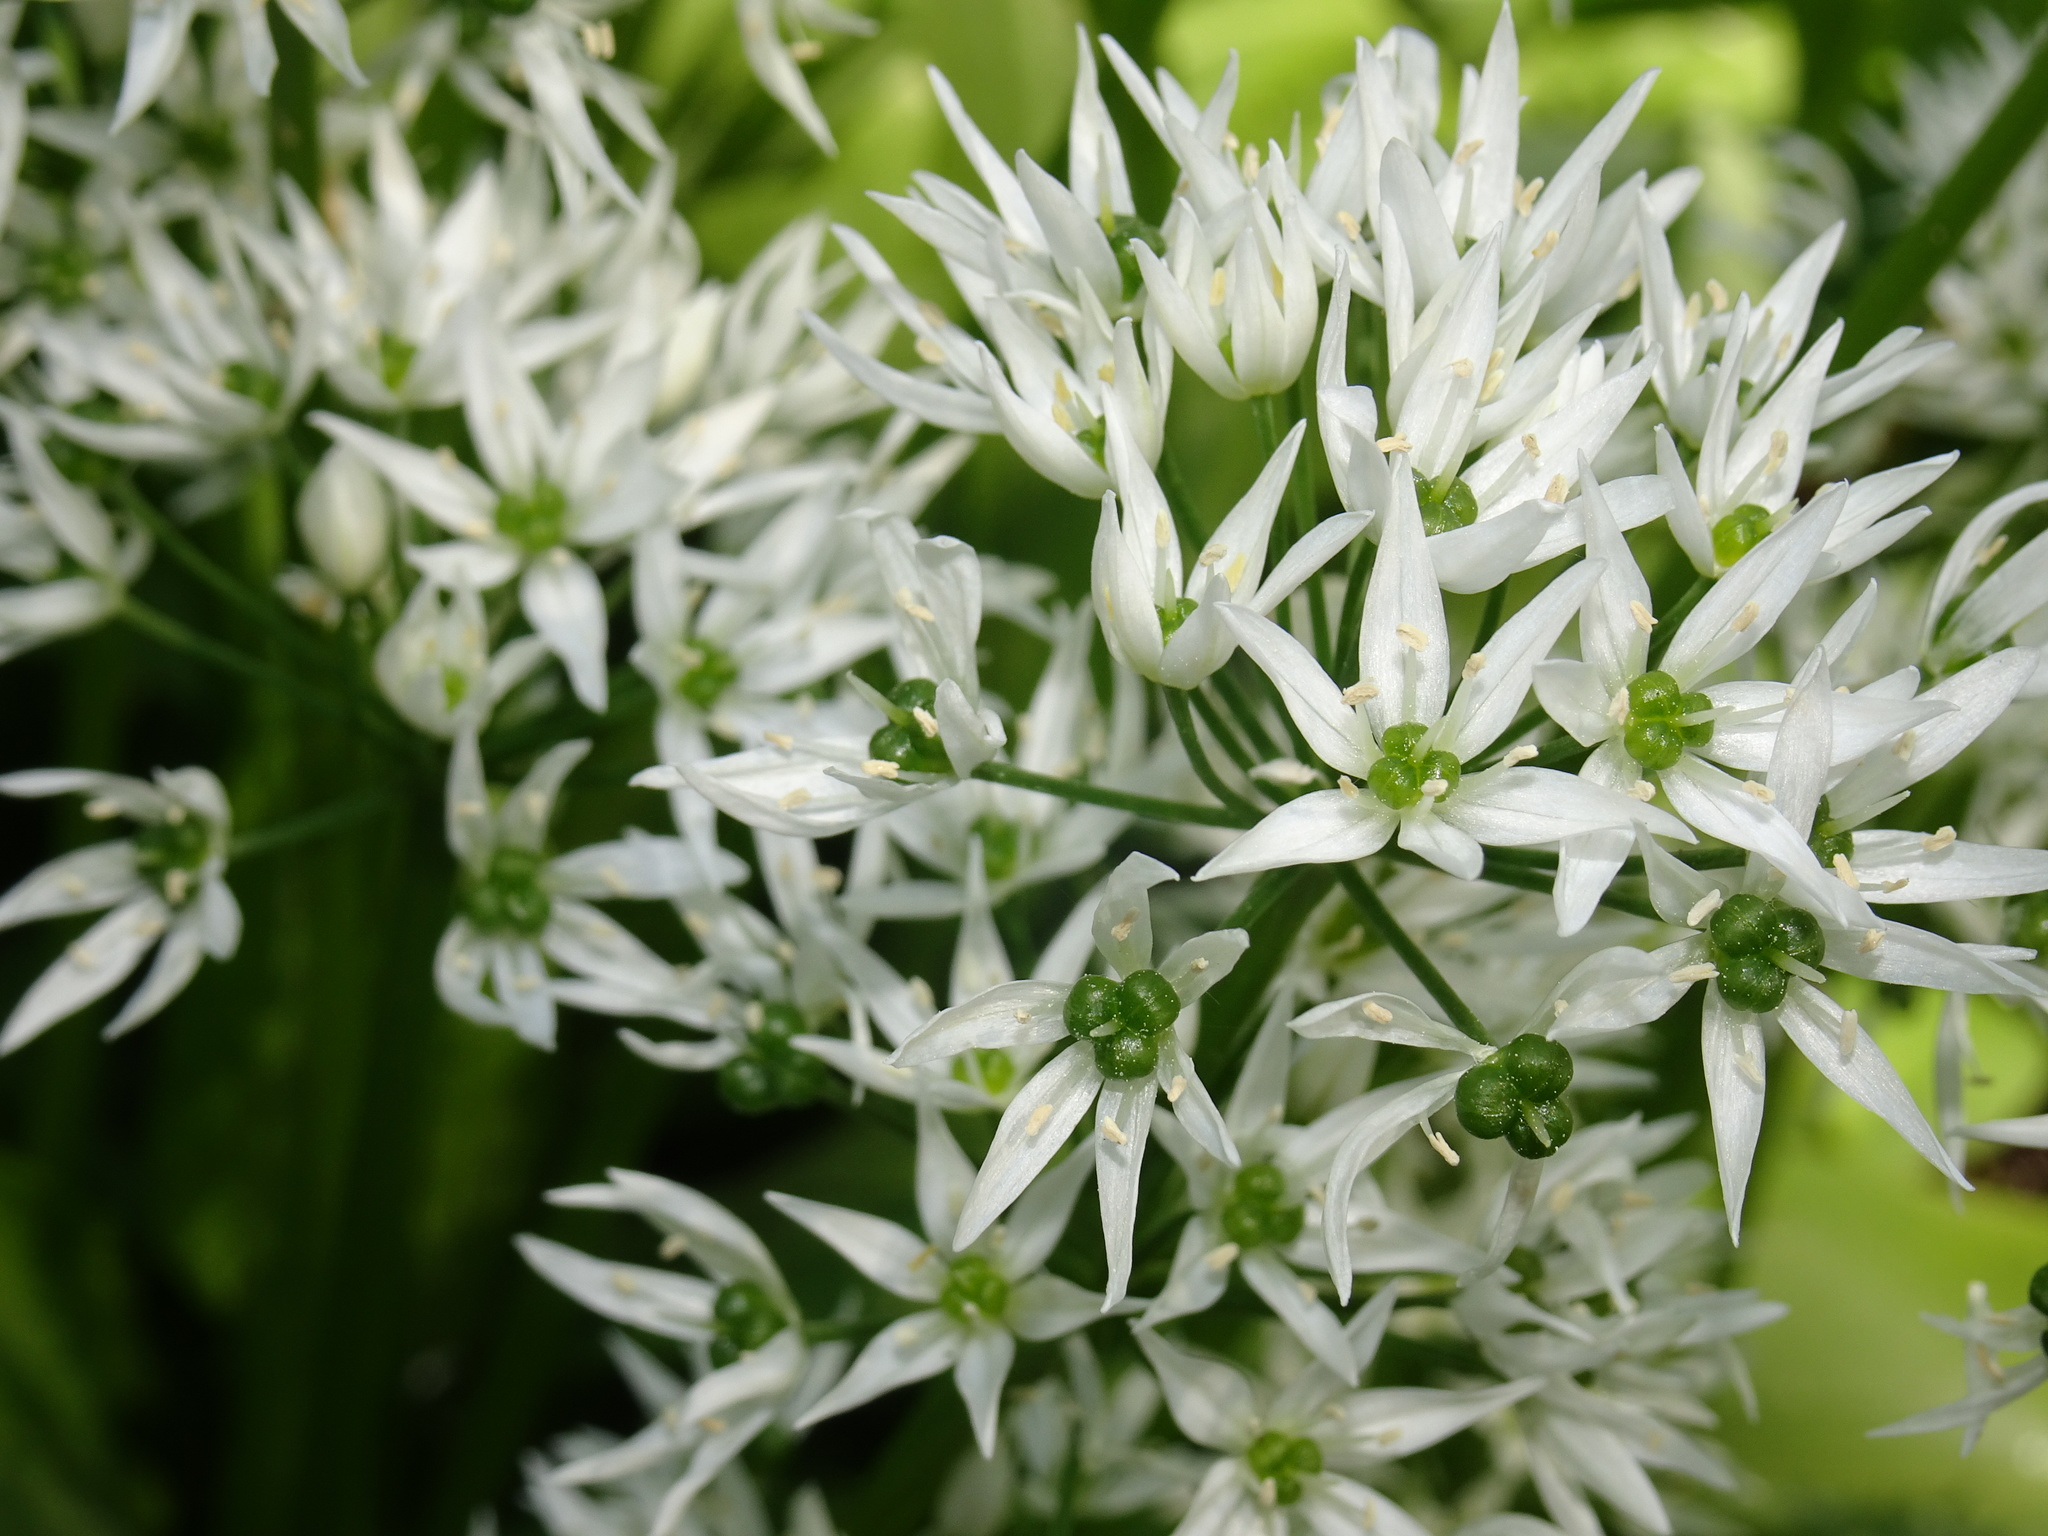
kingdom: Plantae
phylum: Tracheophyta
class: Liliopsida
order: Asparagales
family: Amaryllidaceae
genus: Allium
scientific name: Allium ursinum
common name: Ramsons
